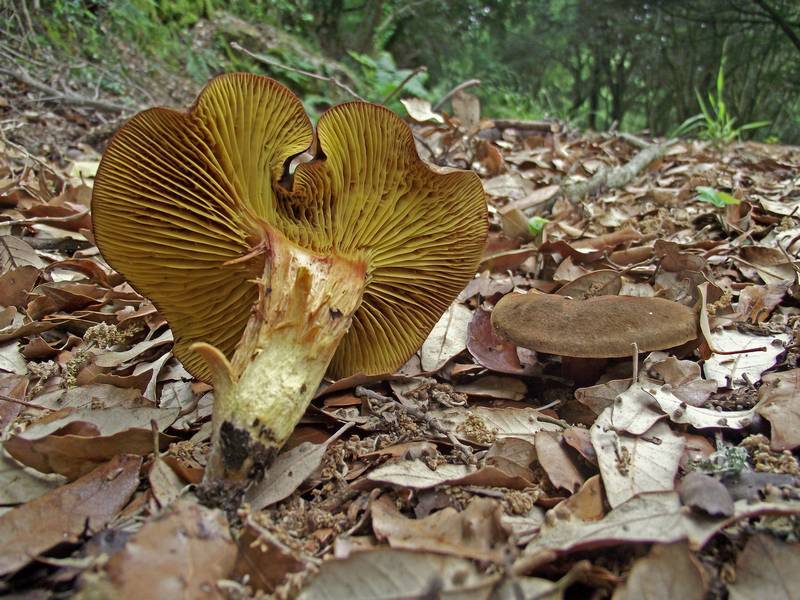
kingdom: Fungi
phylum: Basidiomycota
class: Agaricomycetes
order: Boletales
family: Boletaceae
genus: Phylloporus
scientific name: Phylloporus pelletieri
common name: Golden gilled bolete
